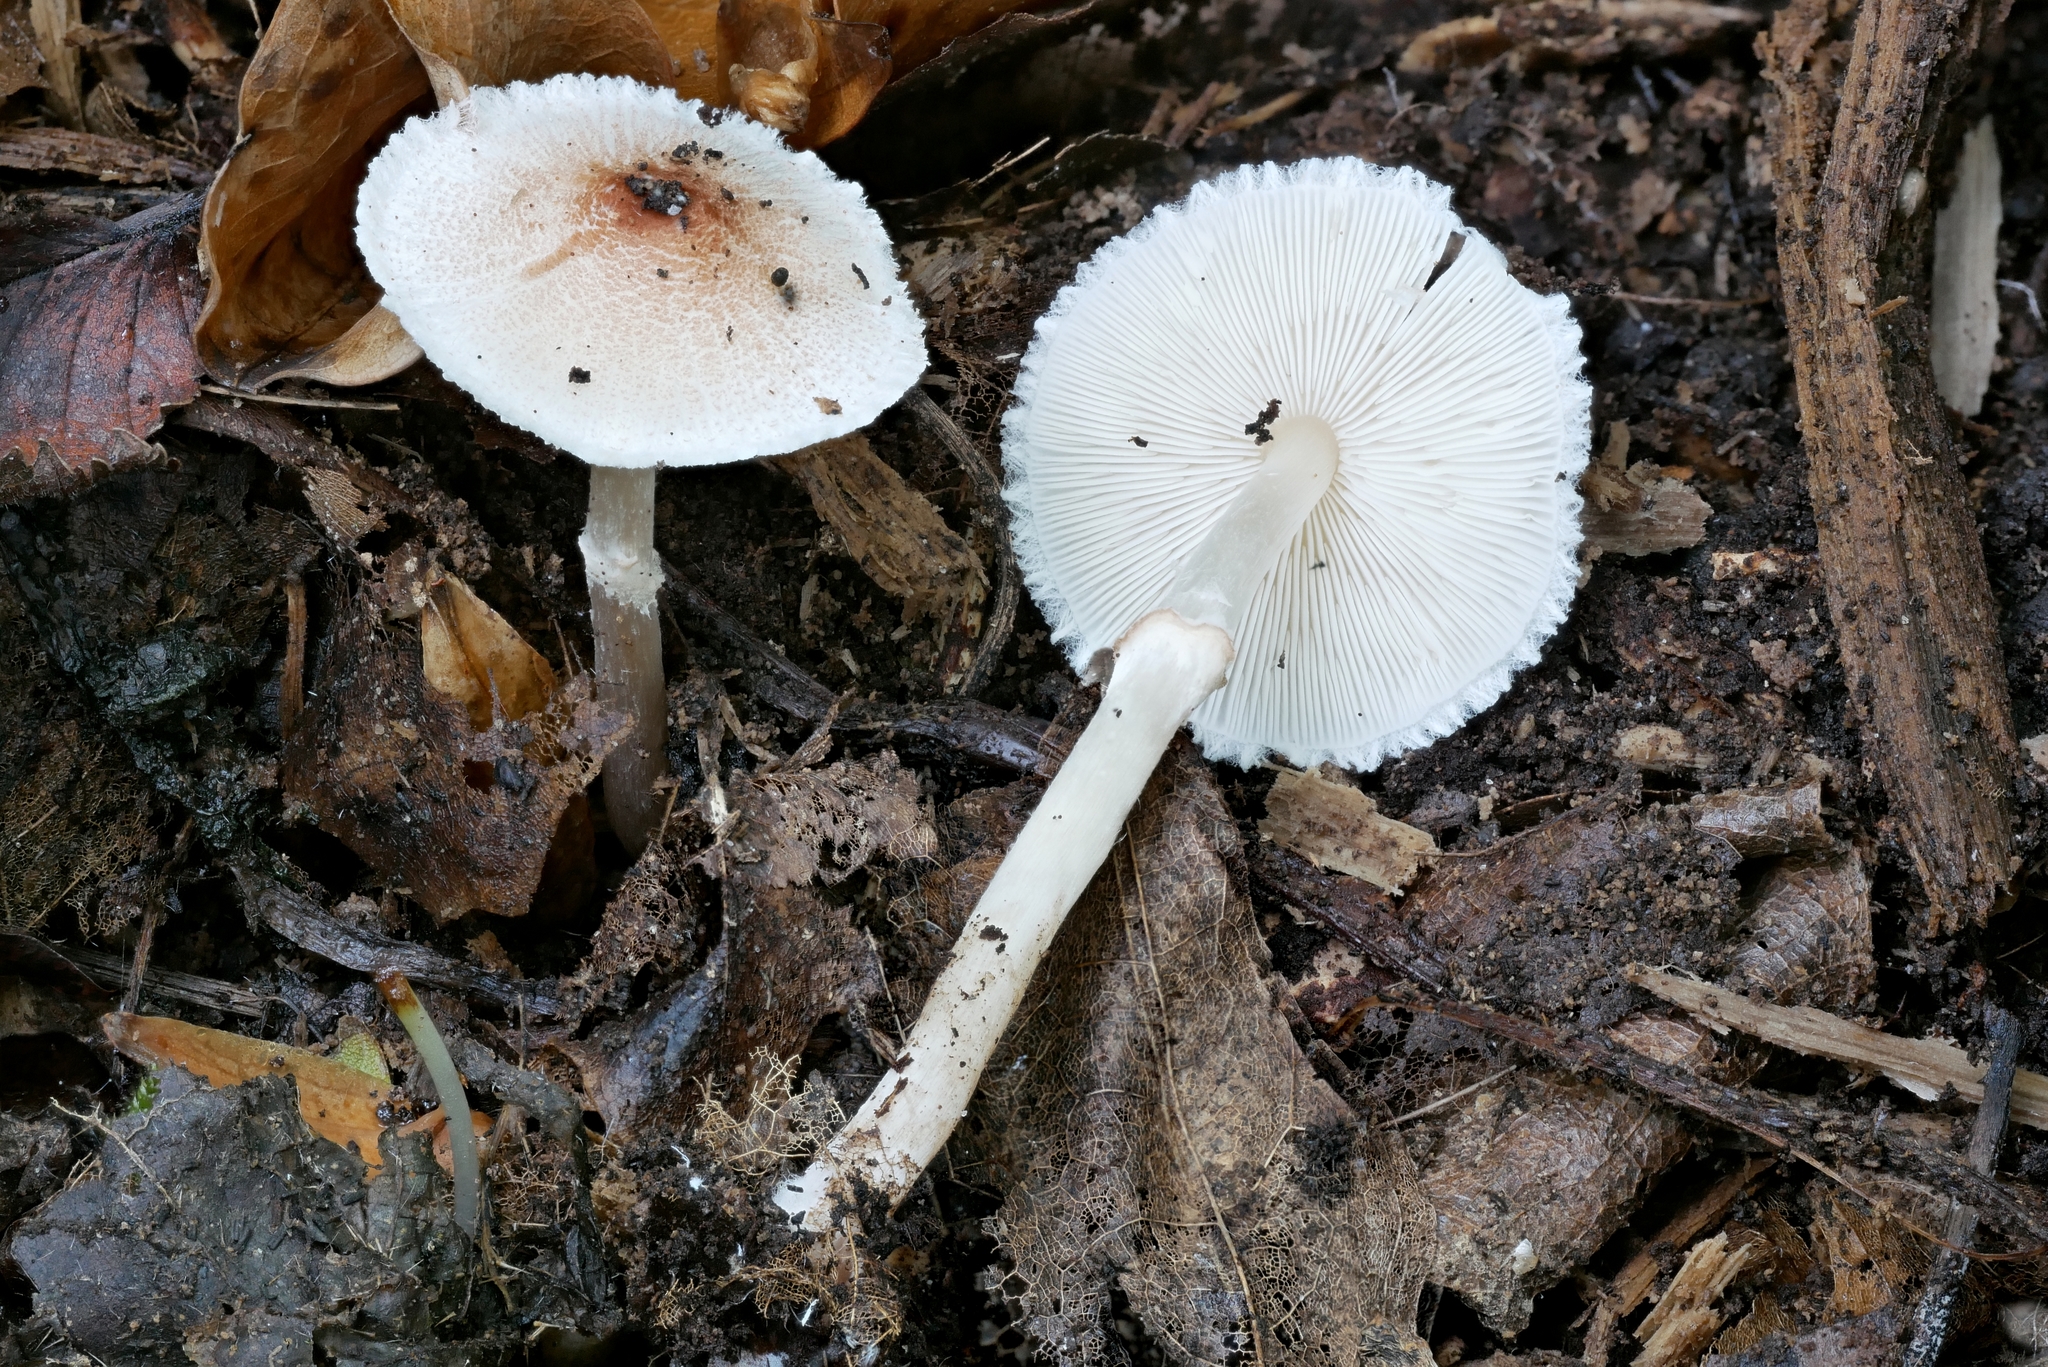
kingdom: Fungi
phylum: Basidiomycota
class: Agaricomycetes
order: Agaricales
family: Agaricaceae
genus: Lepiota
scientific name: Lepiota cristata
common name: Stinking dapperling
